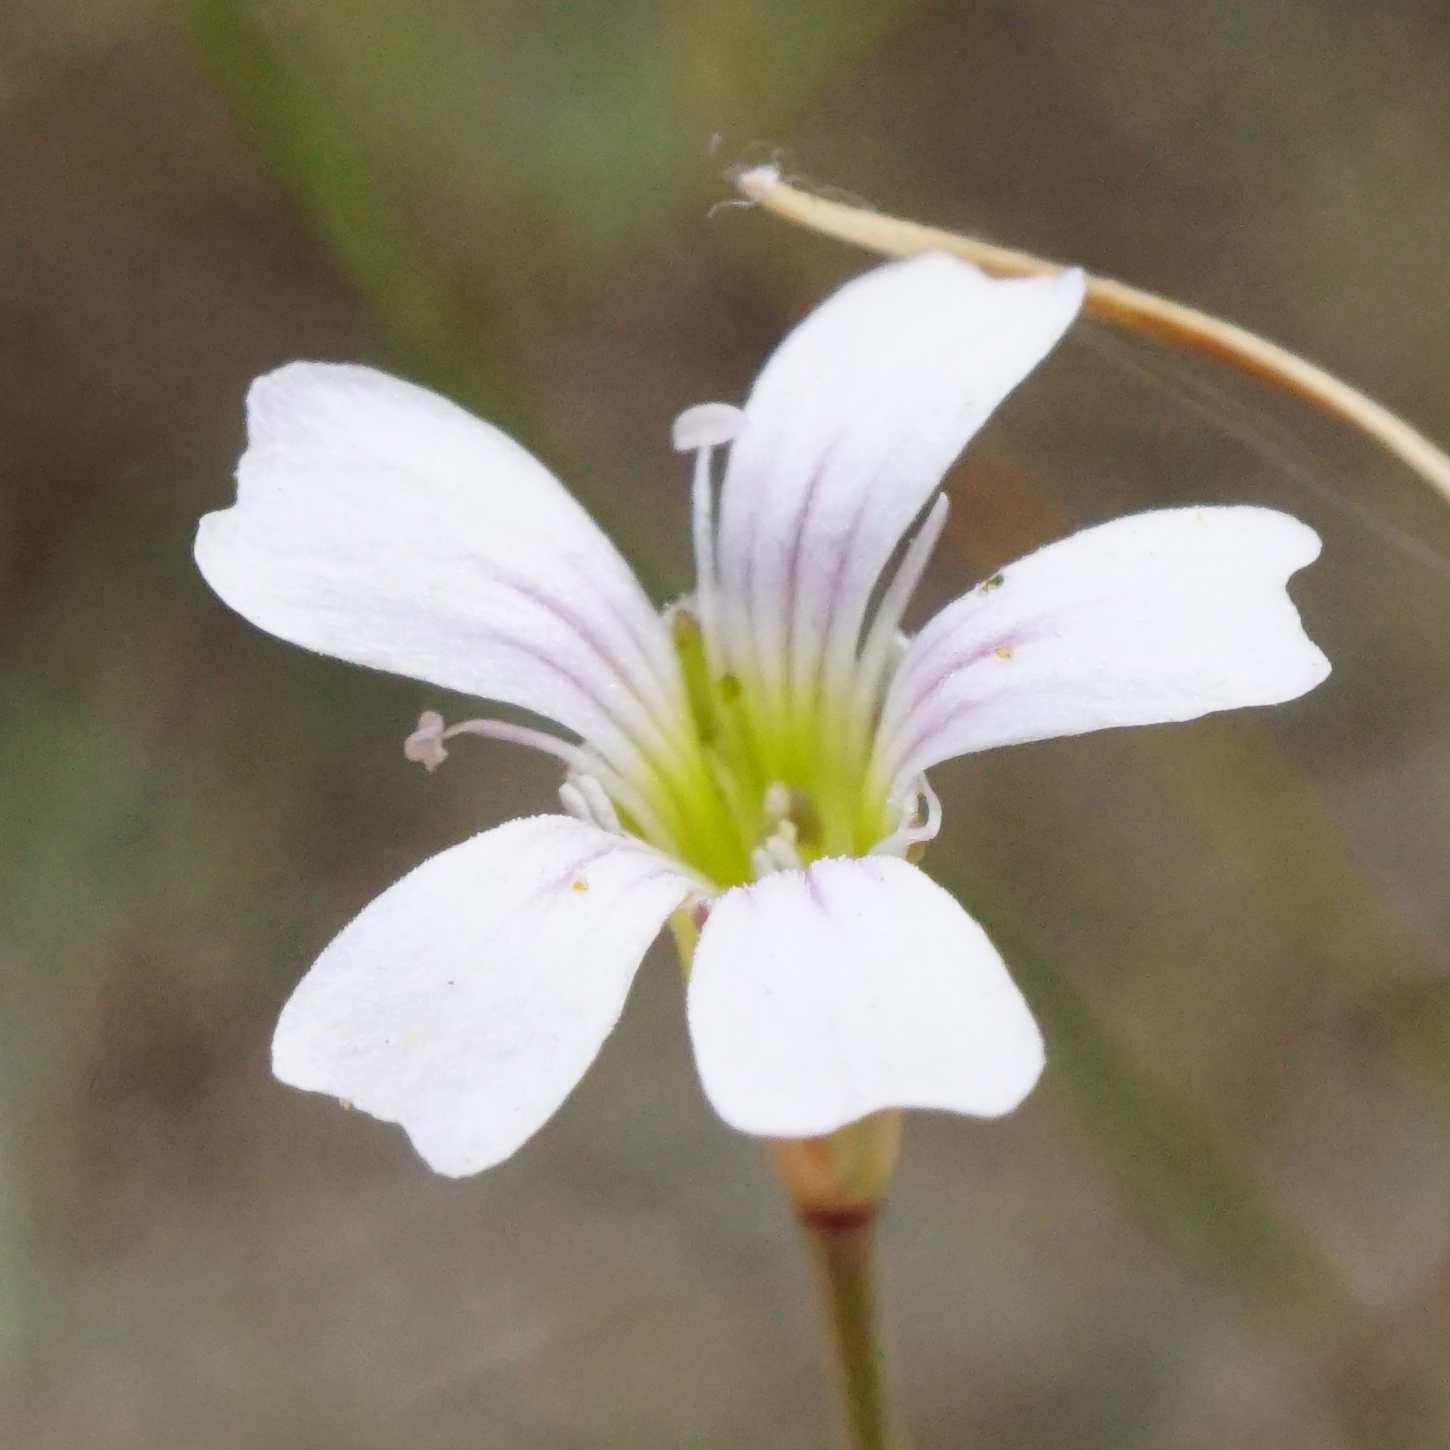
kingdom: Plantae
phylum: Tracheophyta
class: Magnoliopsida
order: Caryophyllales
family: Caryophyllaceae
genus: Petrorhagia
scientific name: Petrorhagia saxifraga
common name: Tunicflower
